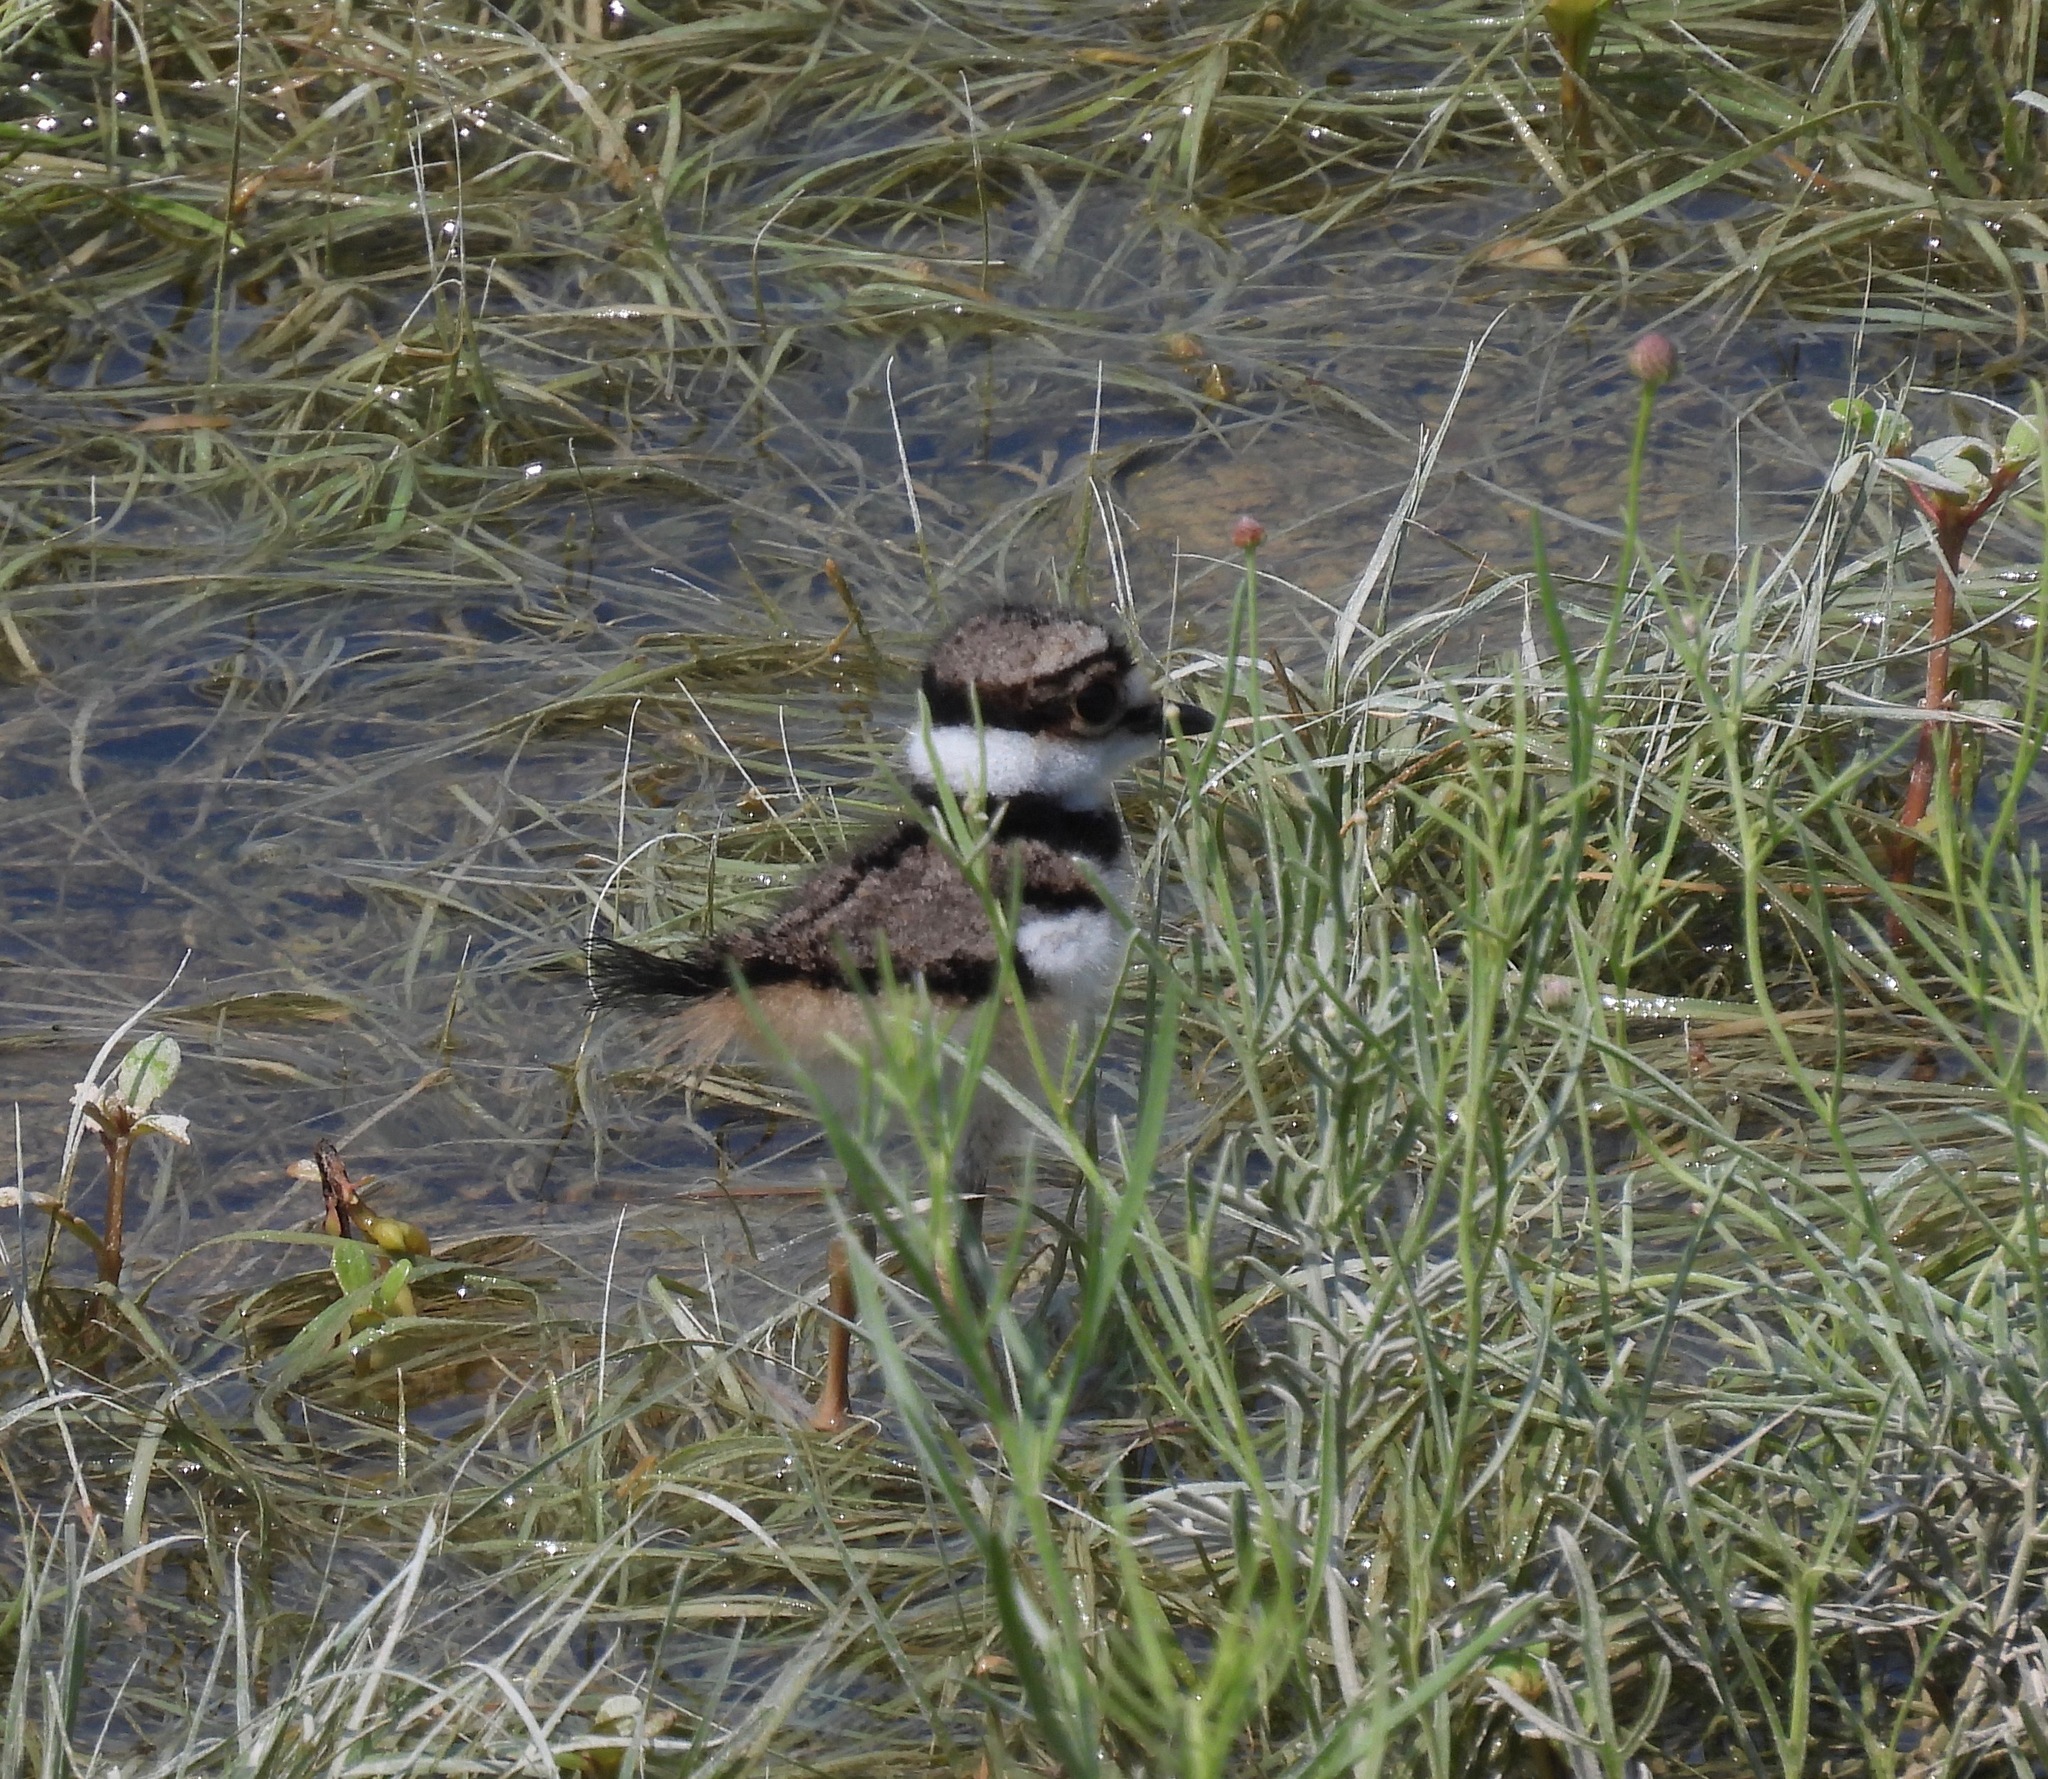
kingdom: Animalia
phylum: Chordata
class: Aves
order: Charadriiformes
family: Charadriidae
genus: Charadrius
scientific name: Charadrius vociferus
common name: Killdeer
